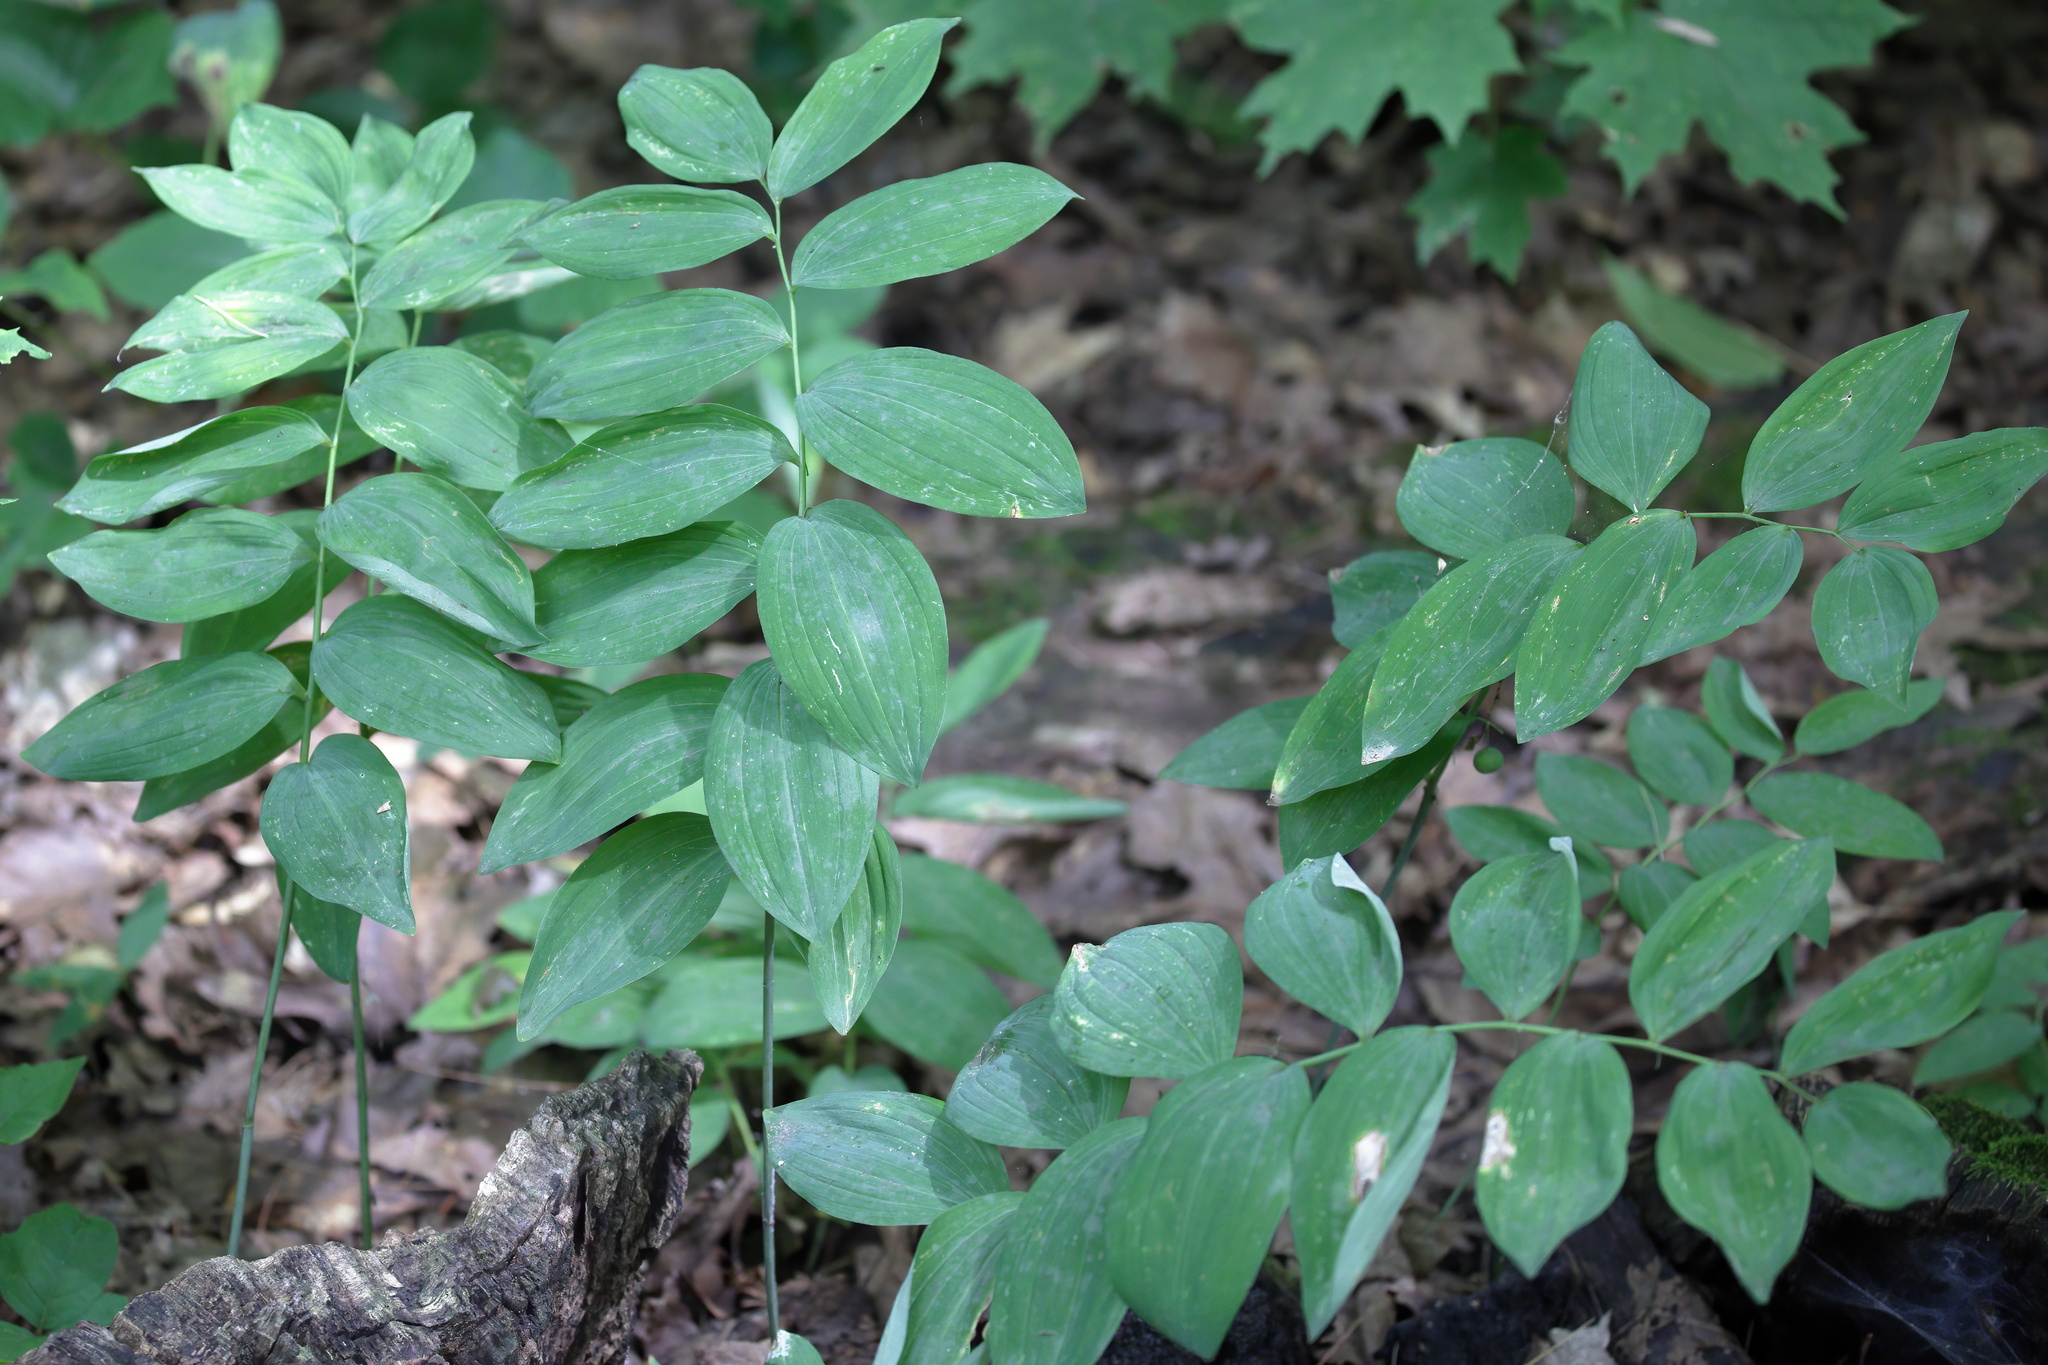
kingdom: Plantae
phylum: Tracheophyta
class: Liliopsida
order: Asparagales
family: Asparagaceae
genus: Polygonatum
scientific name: Polygonatum pubescens
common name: Downy solomon's seal
